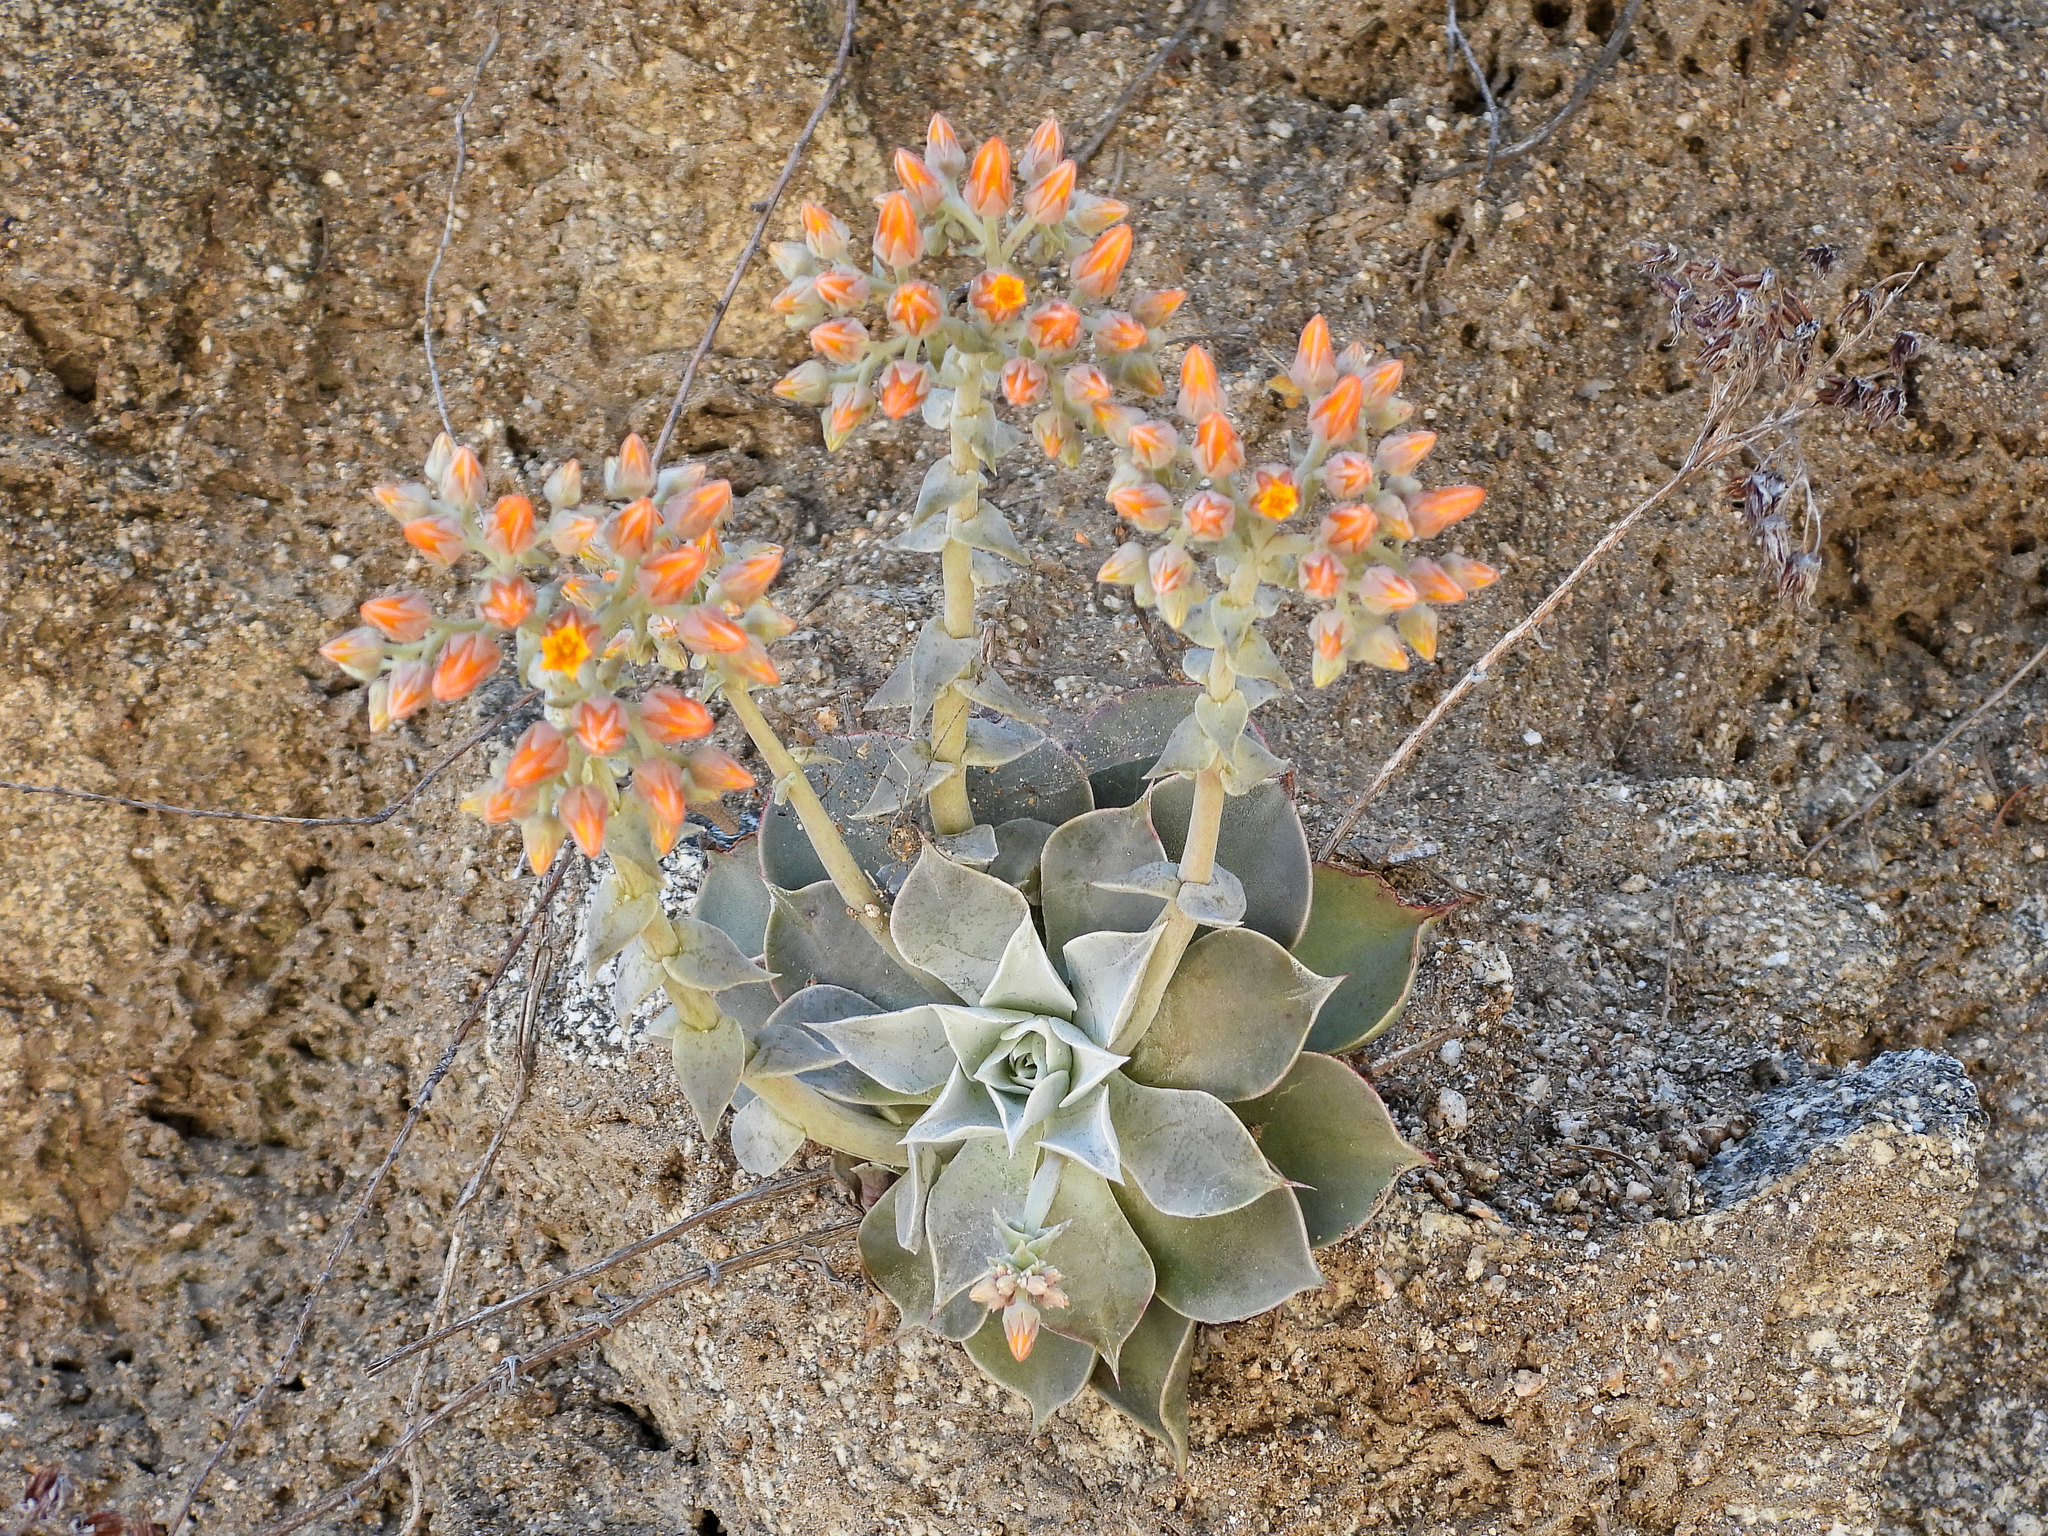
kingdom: Plantae
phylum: Tracheophyta
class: Magnoliopsida
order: Saxifragales
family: Crassulaceae
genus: Dudleya
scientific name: Dudleya cymosa
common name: Canyon dudleya
